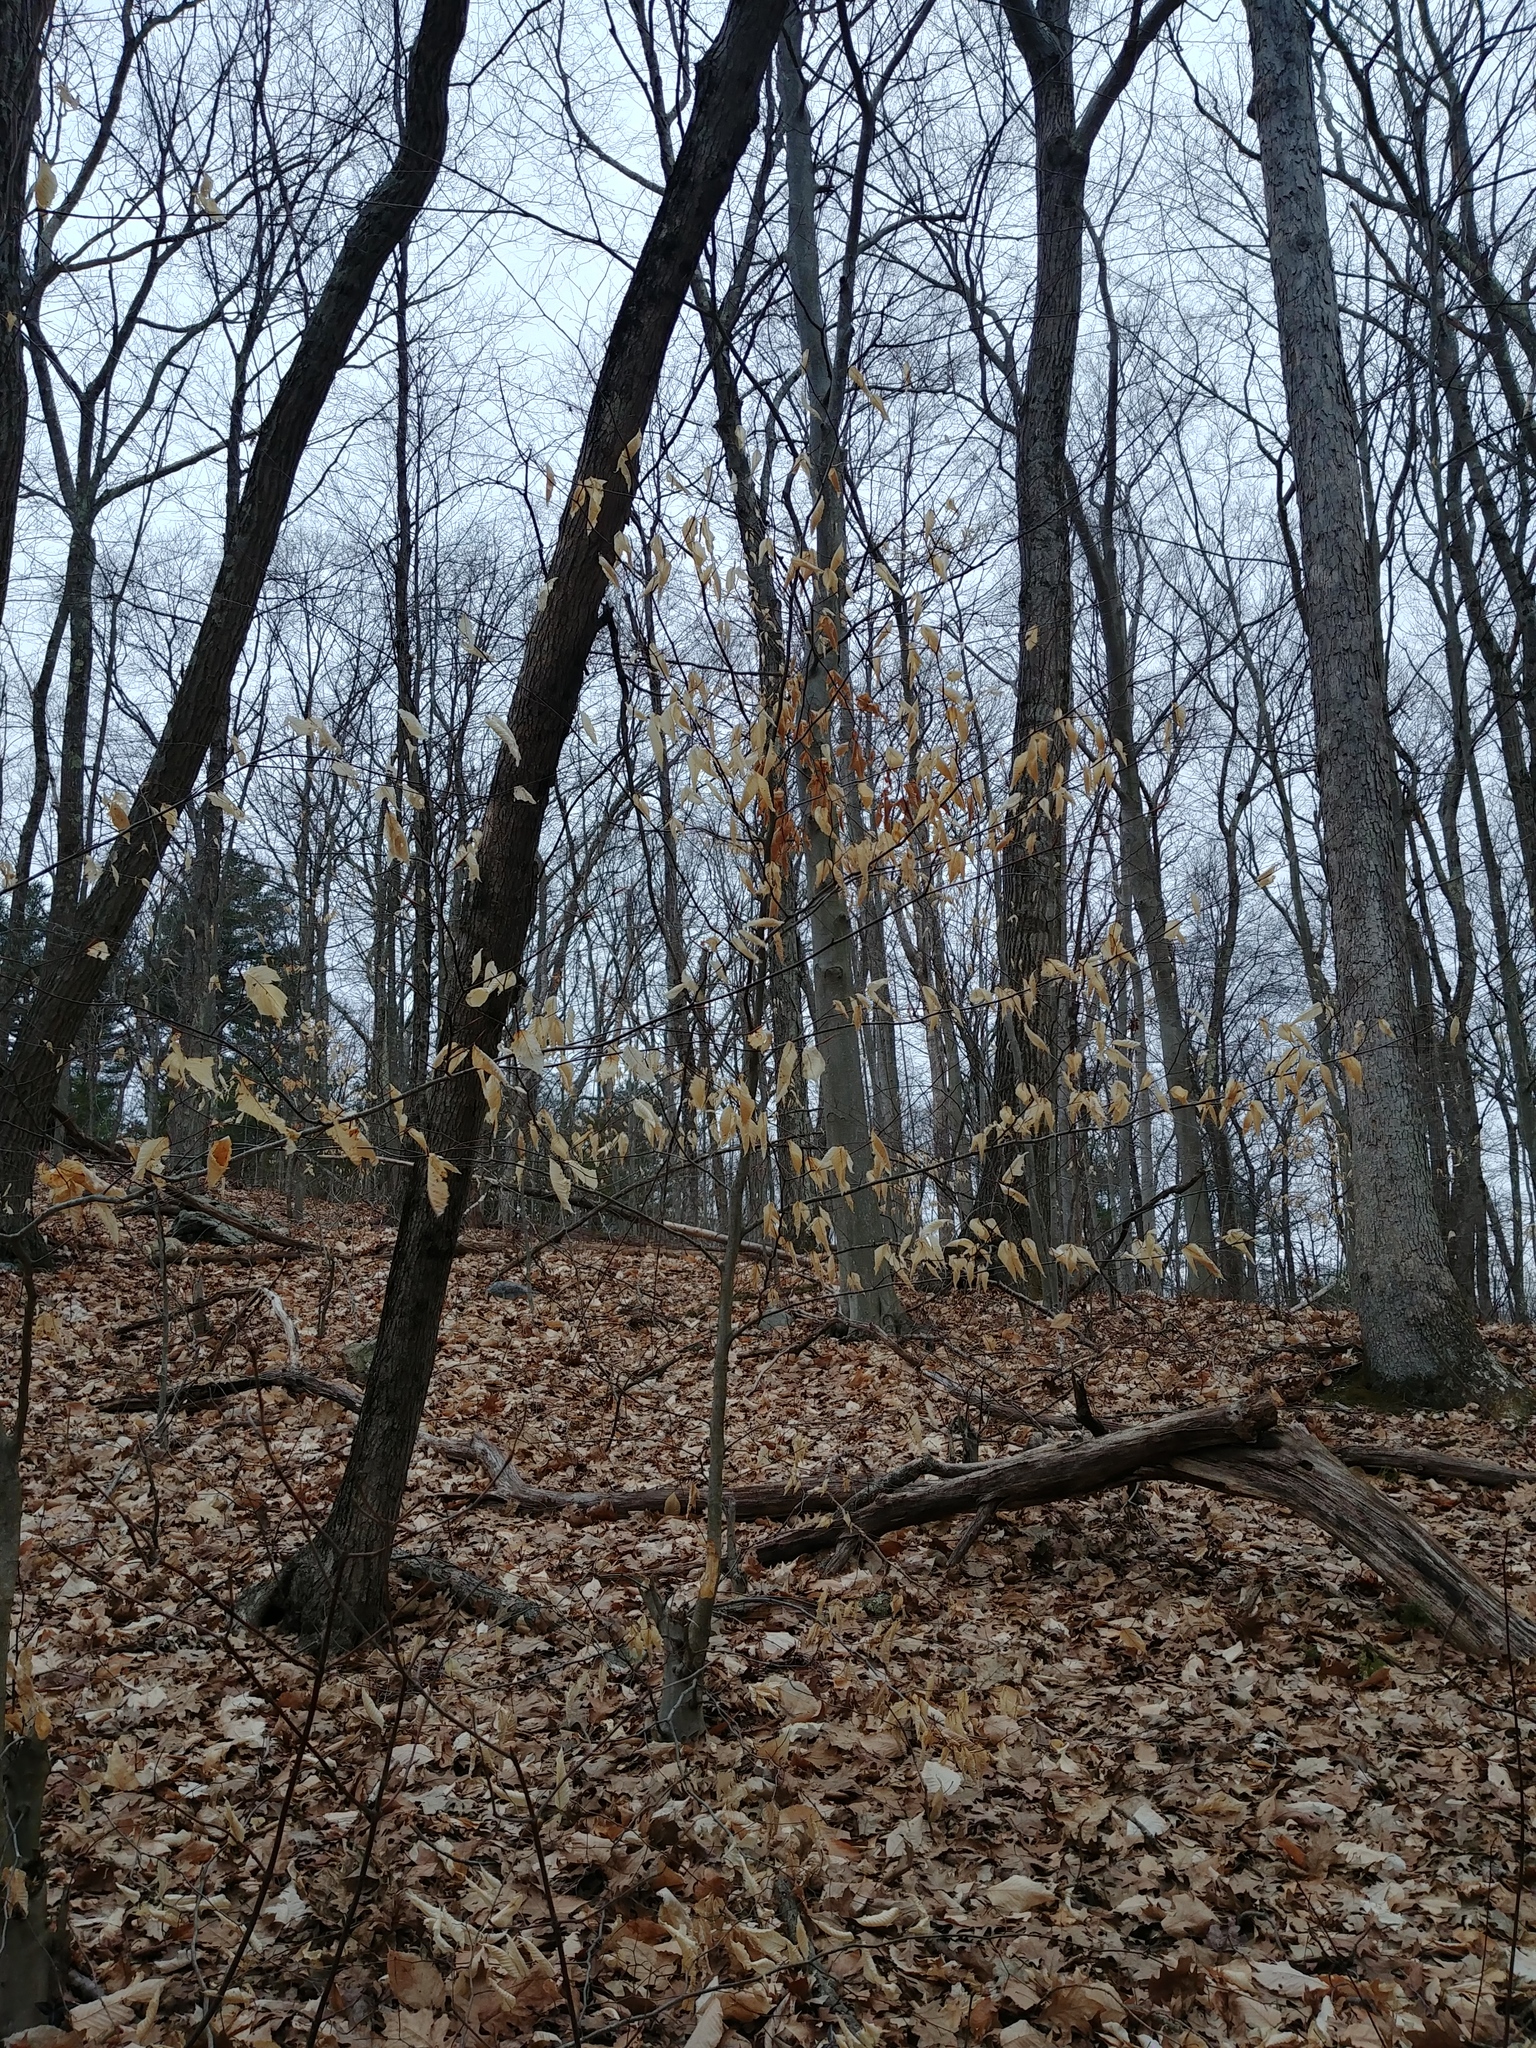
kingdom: Plantae
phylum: Tracheophyta
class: Magnoliopsida
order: Fagales
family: Fagaceae
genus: Fagus
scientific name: Fagus grandifolia
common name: American beech
